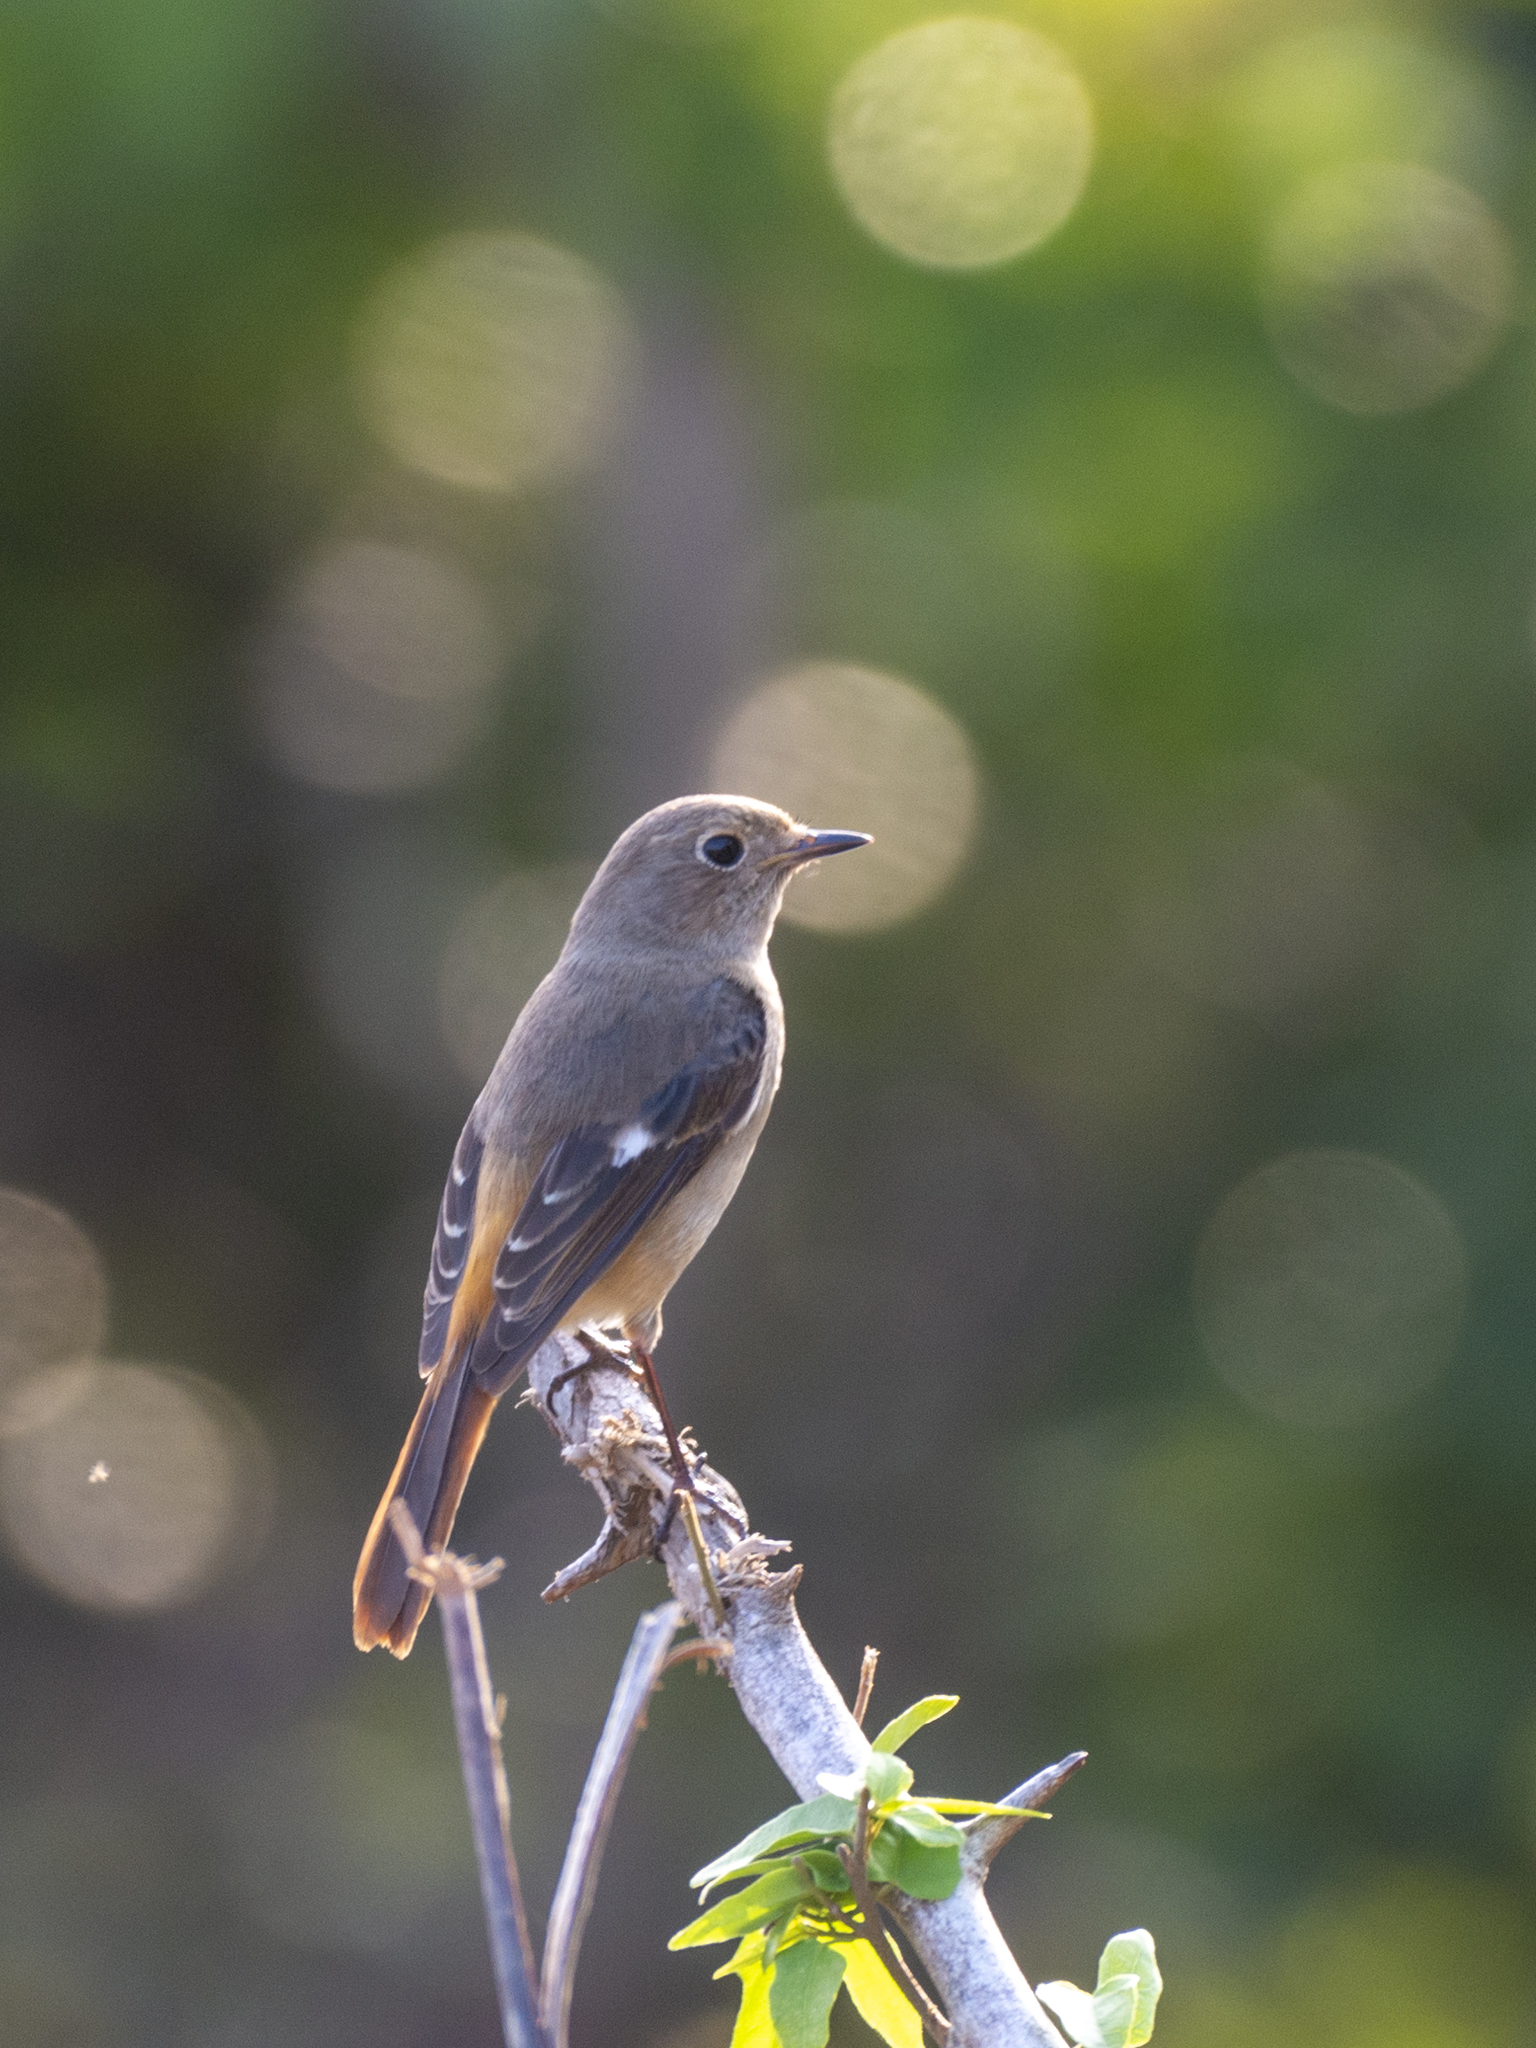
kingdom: Animalia
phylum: Chordata
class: Aves
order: Passeriformes
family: Muscicapidae
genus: Phoenicurus
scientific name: Phoenicurus auroreus
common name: Daurian redstart
